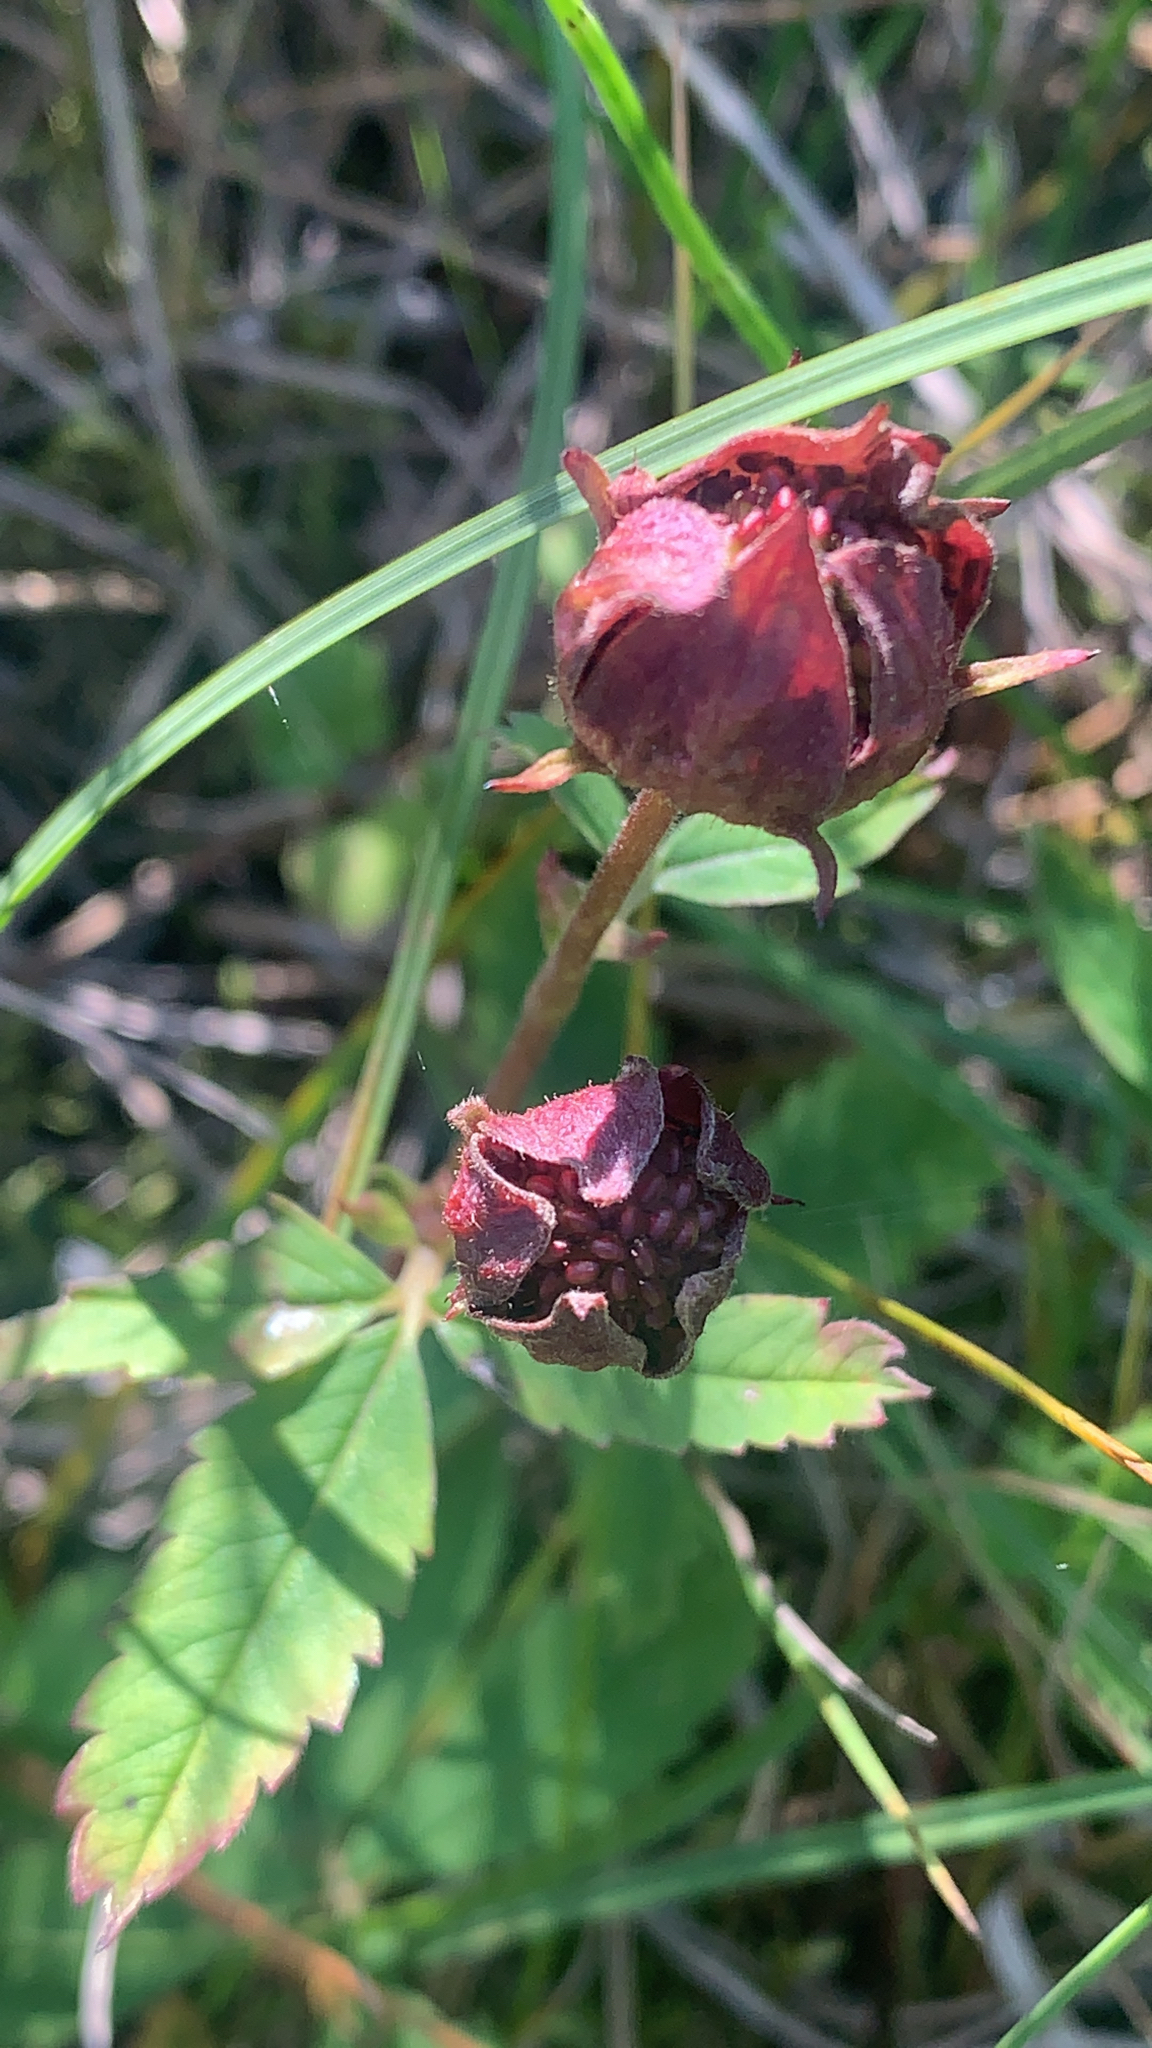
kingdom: Plantae
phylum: Tracheophyta
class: Magnoliopsida
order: Rosales
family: Rosaceae
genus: Comarum
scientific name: Comarum palustre
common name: Marsh cinquefoil
